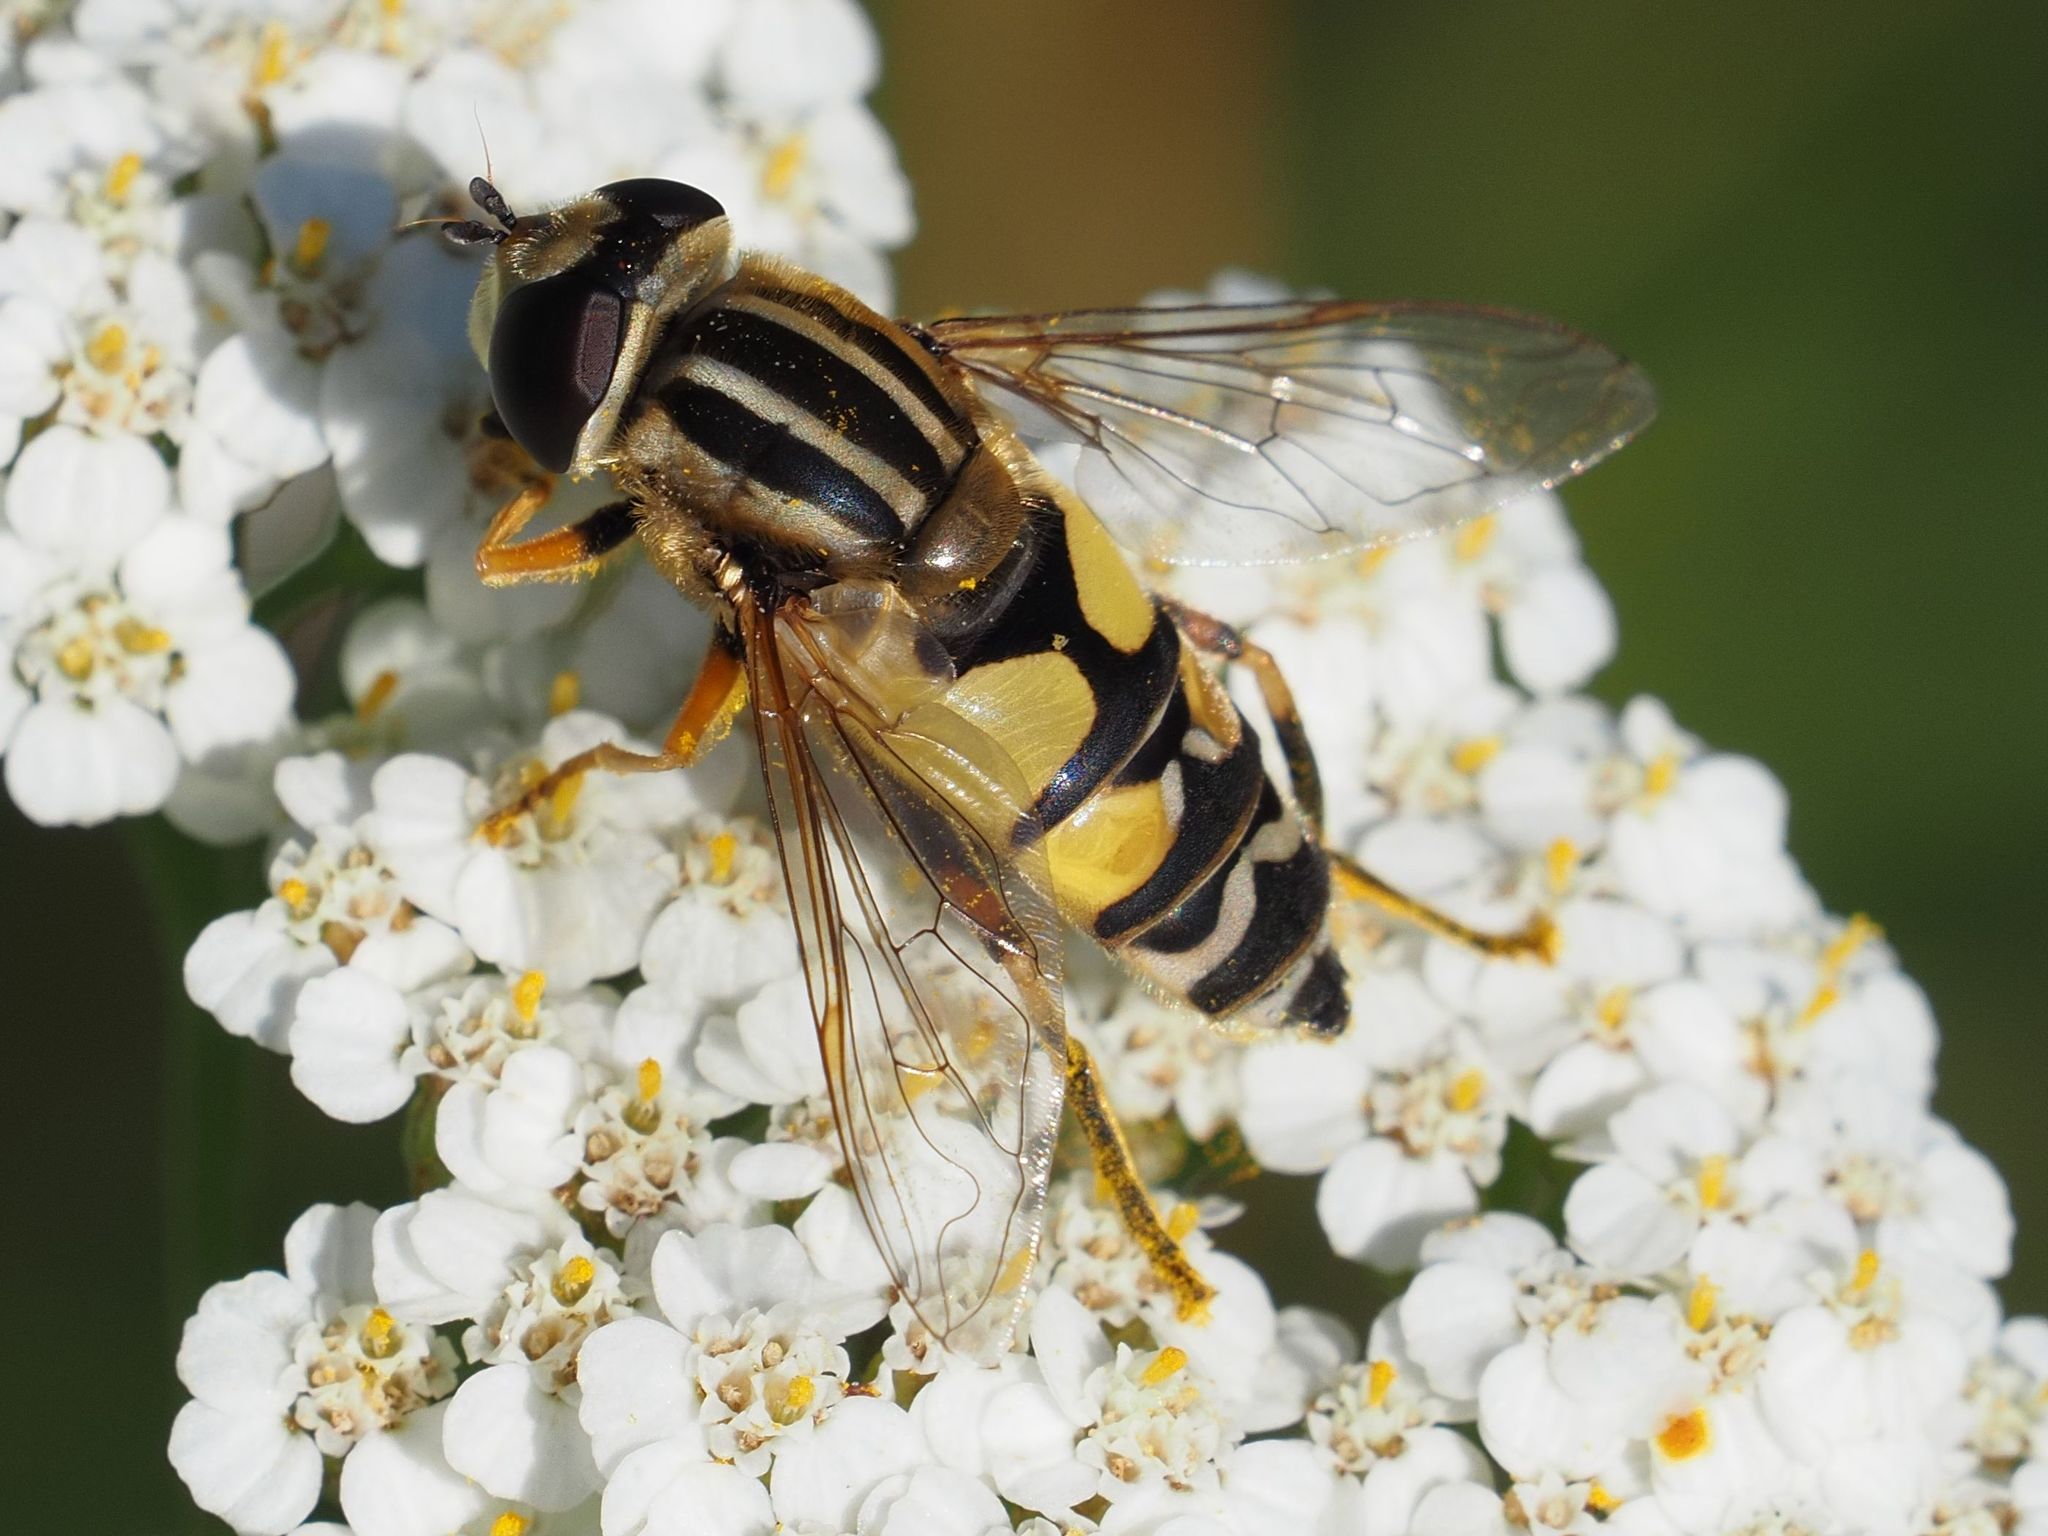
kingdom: Animalia
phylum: Arthropoda
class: Insecta
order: Diptera
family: Syrphidae
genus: Helophilus
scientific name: Helophilus trivittatus
